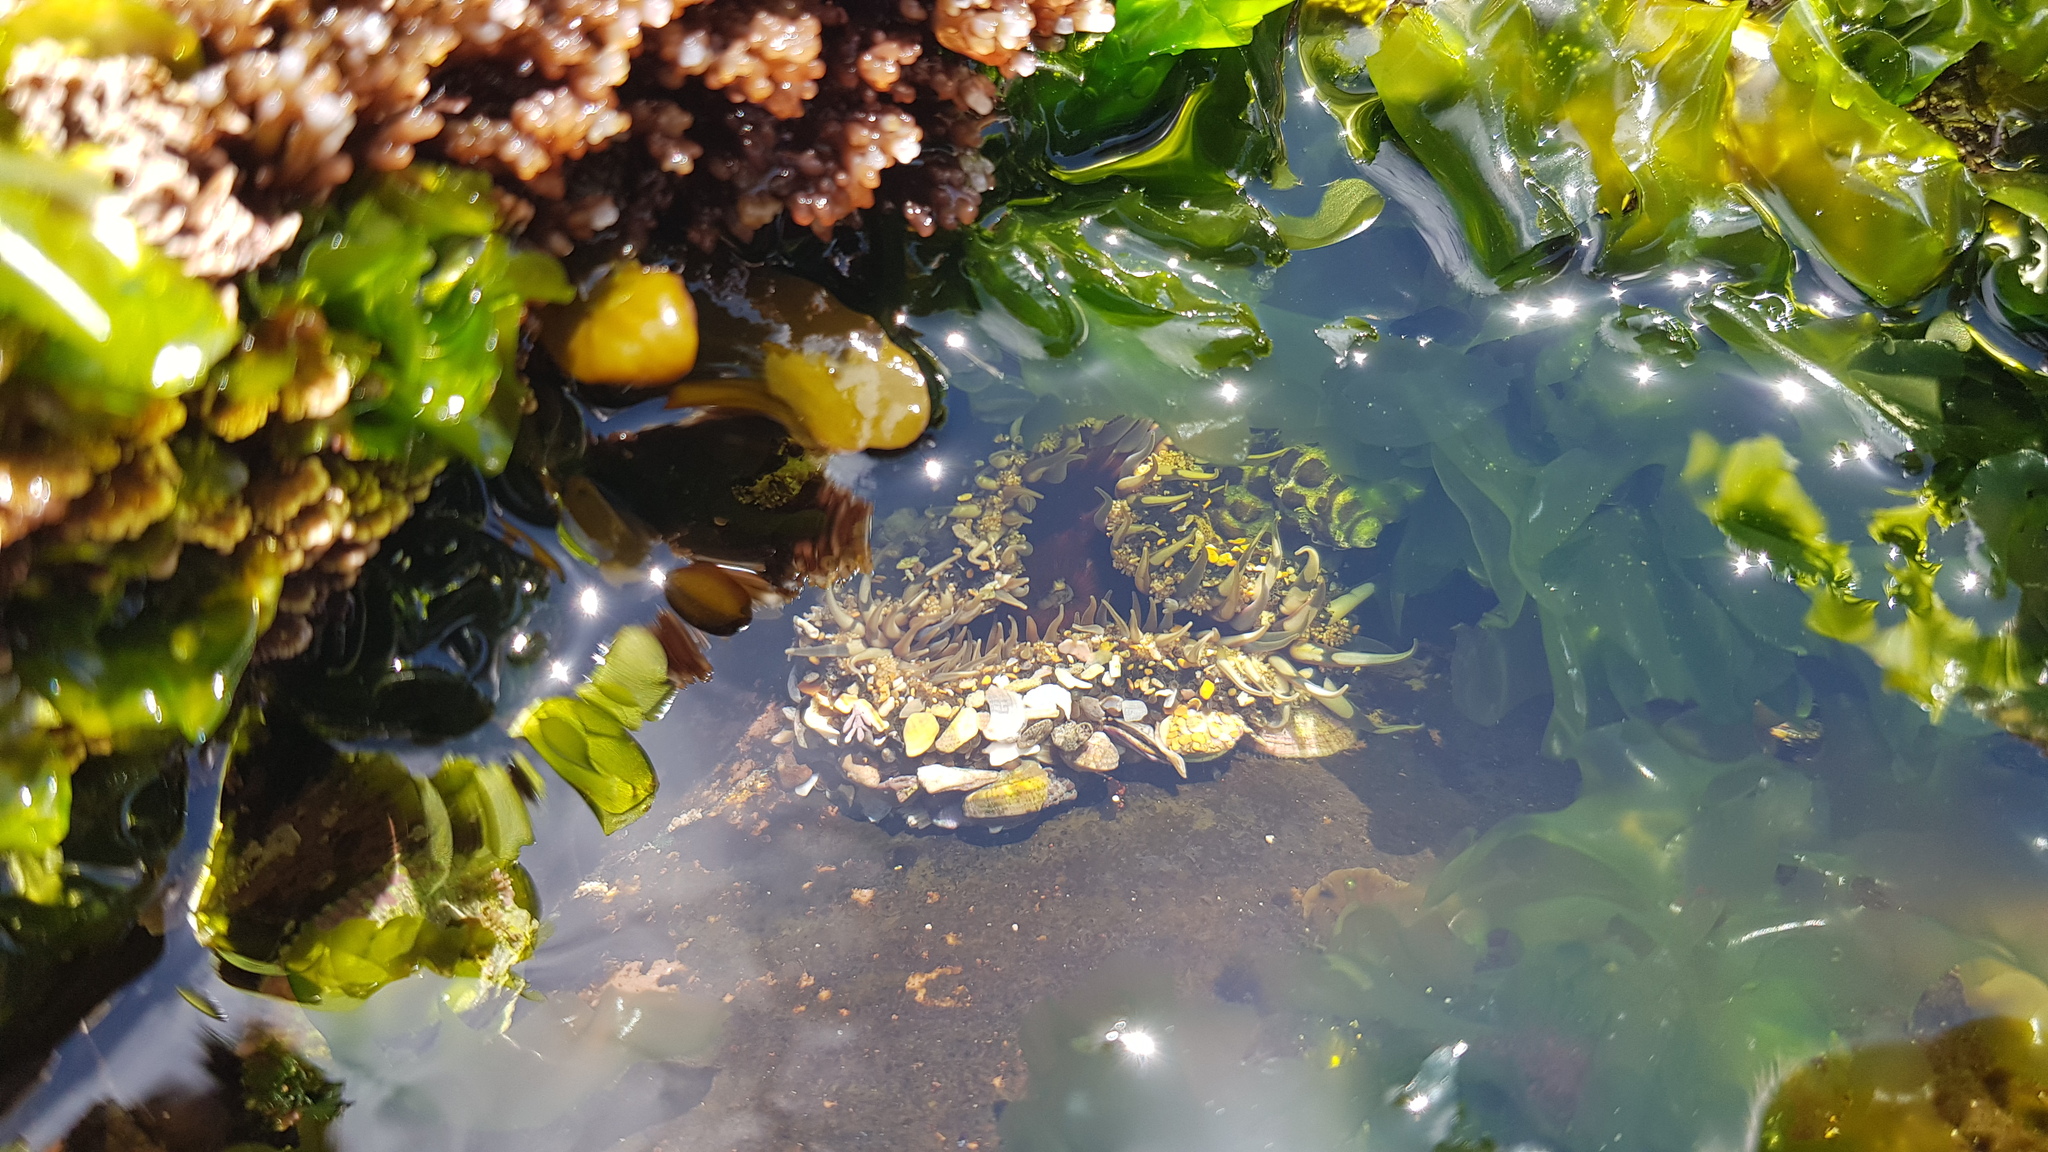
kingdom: Animalia
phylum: Cnidaria
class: Anthozoa
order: Actiniaria
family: Actiniidae
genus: Oulactis
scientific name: Oulactis muscosa
